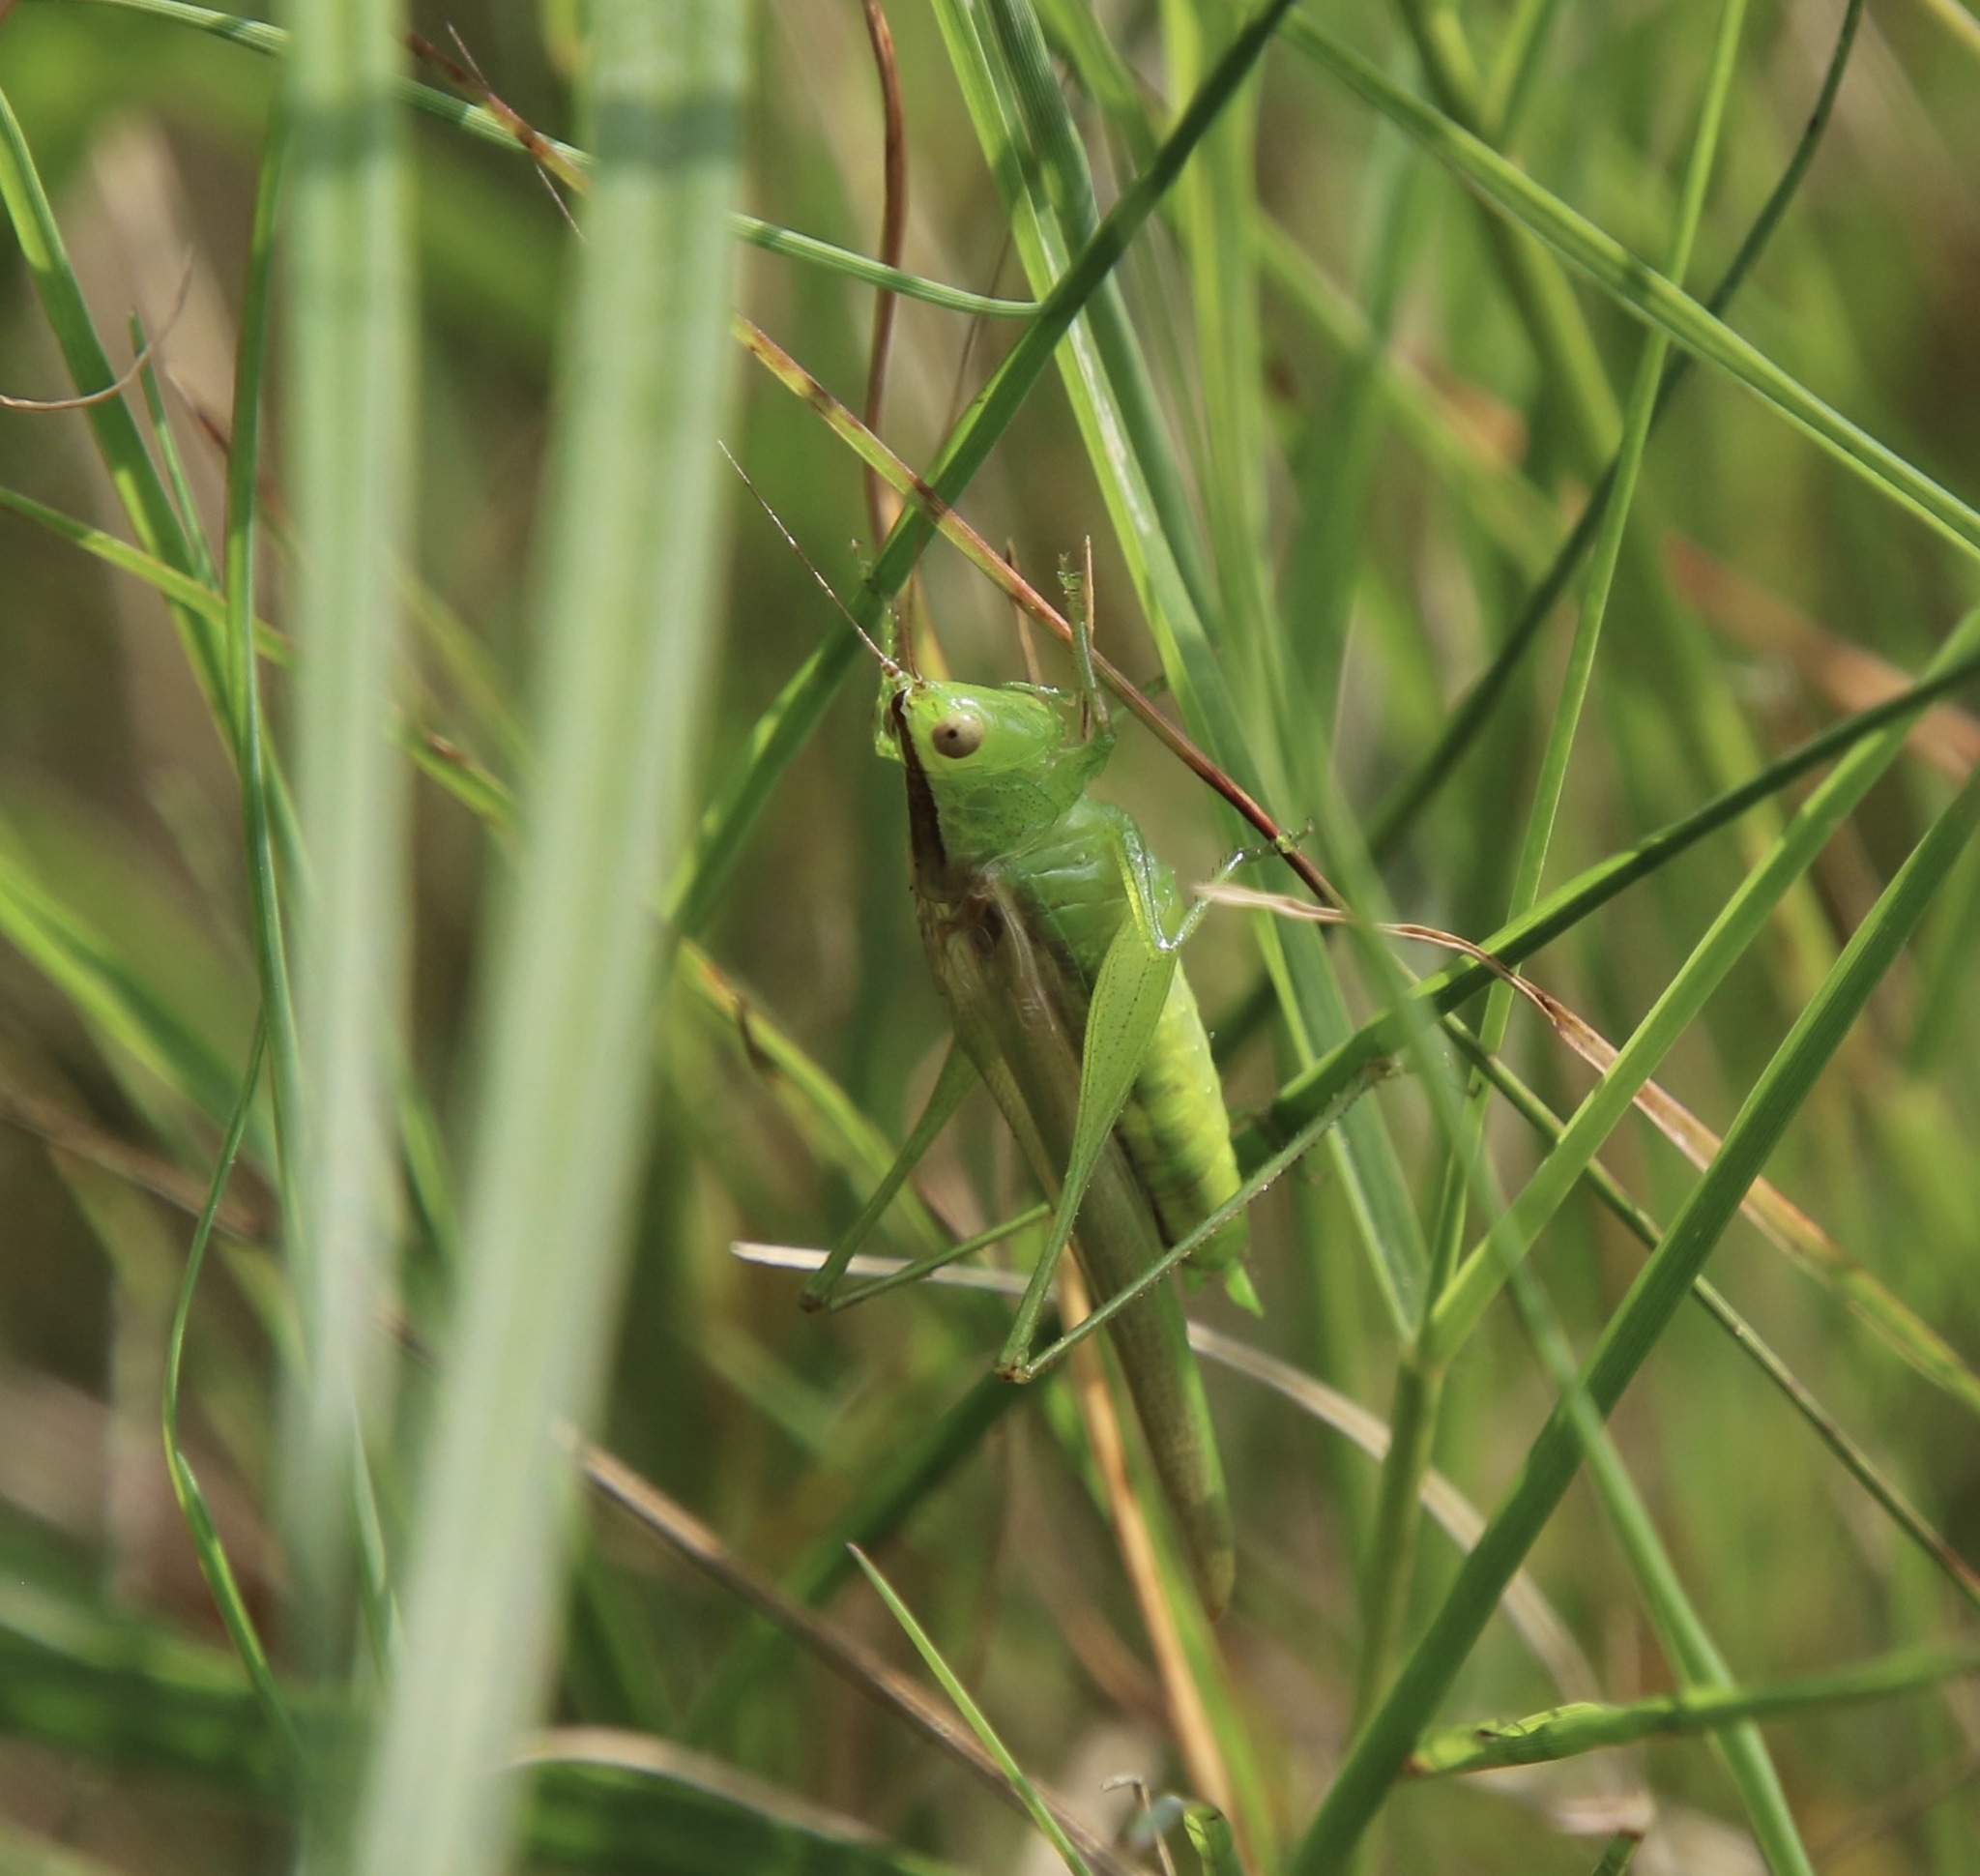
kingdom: Animalia
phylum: Arthropoda
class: Insecta
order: Orthoptera
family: Tettigoniidae
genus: Conocephalus
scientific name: Conocephalus fasciatus
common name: Slender meadow katydid
